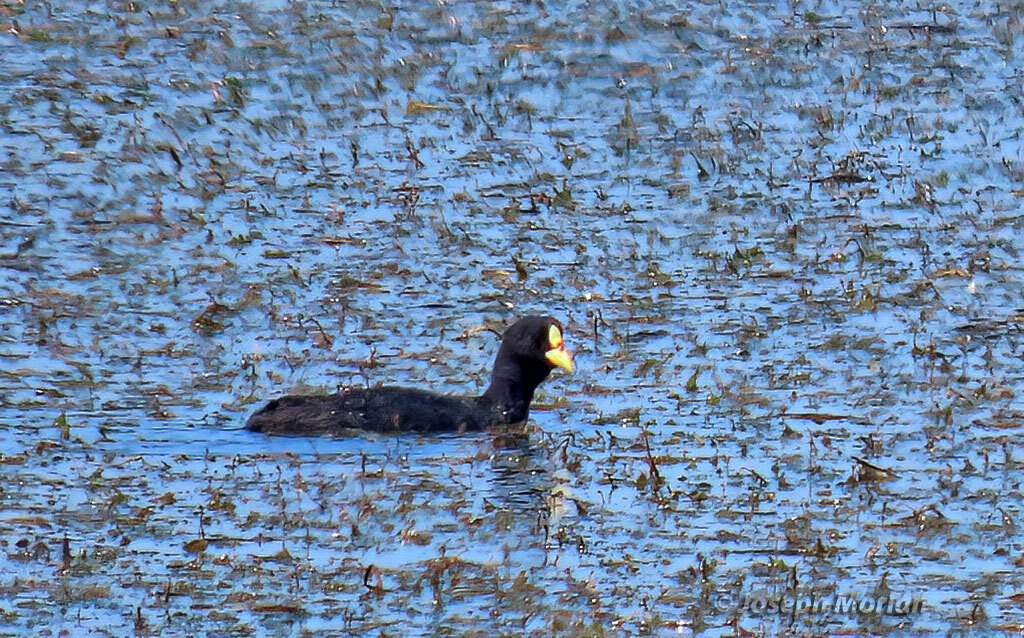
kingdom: Animalia
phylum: Chordata
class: Aves
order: Gruiformes
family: Rallidae
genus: Fulica
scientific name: Fulica armillata
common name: Red-gartered coot
